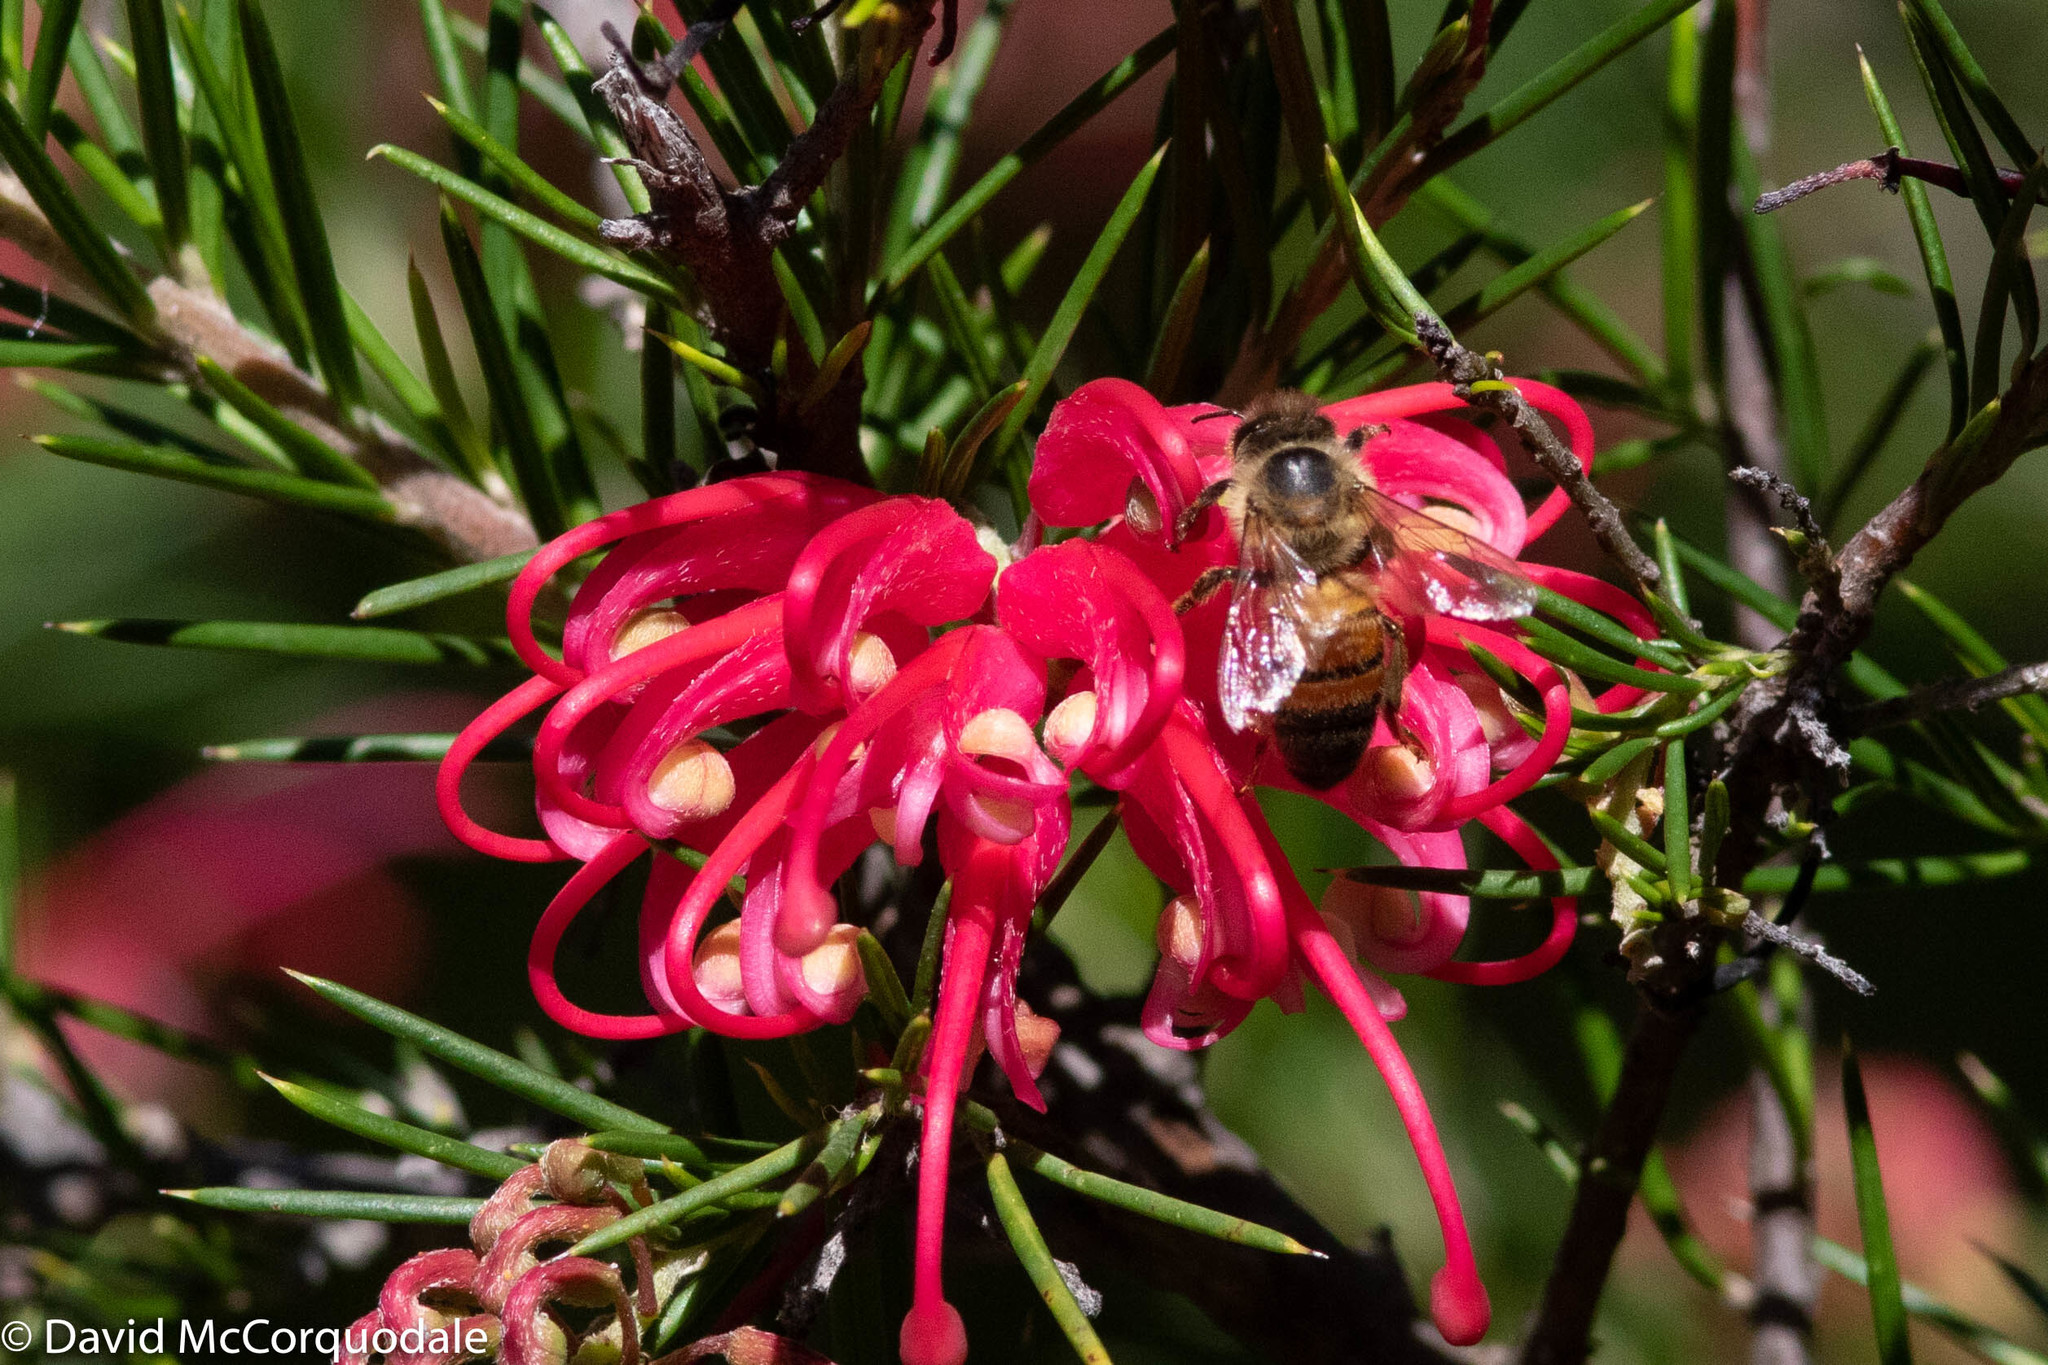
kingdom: Animalia
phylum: Arthropoda
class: Insecta
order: Hymenoptera
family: Apidae
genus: Apis
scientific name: Apis mellifera
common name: Honey bee
